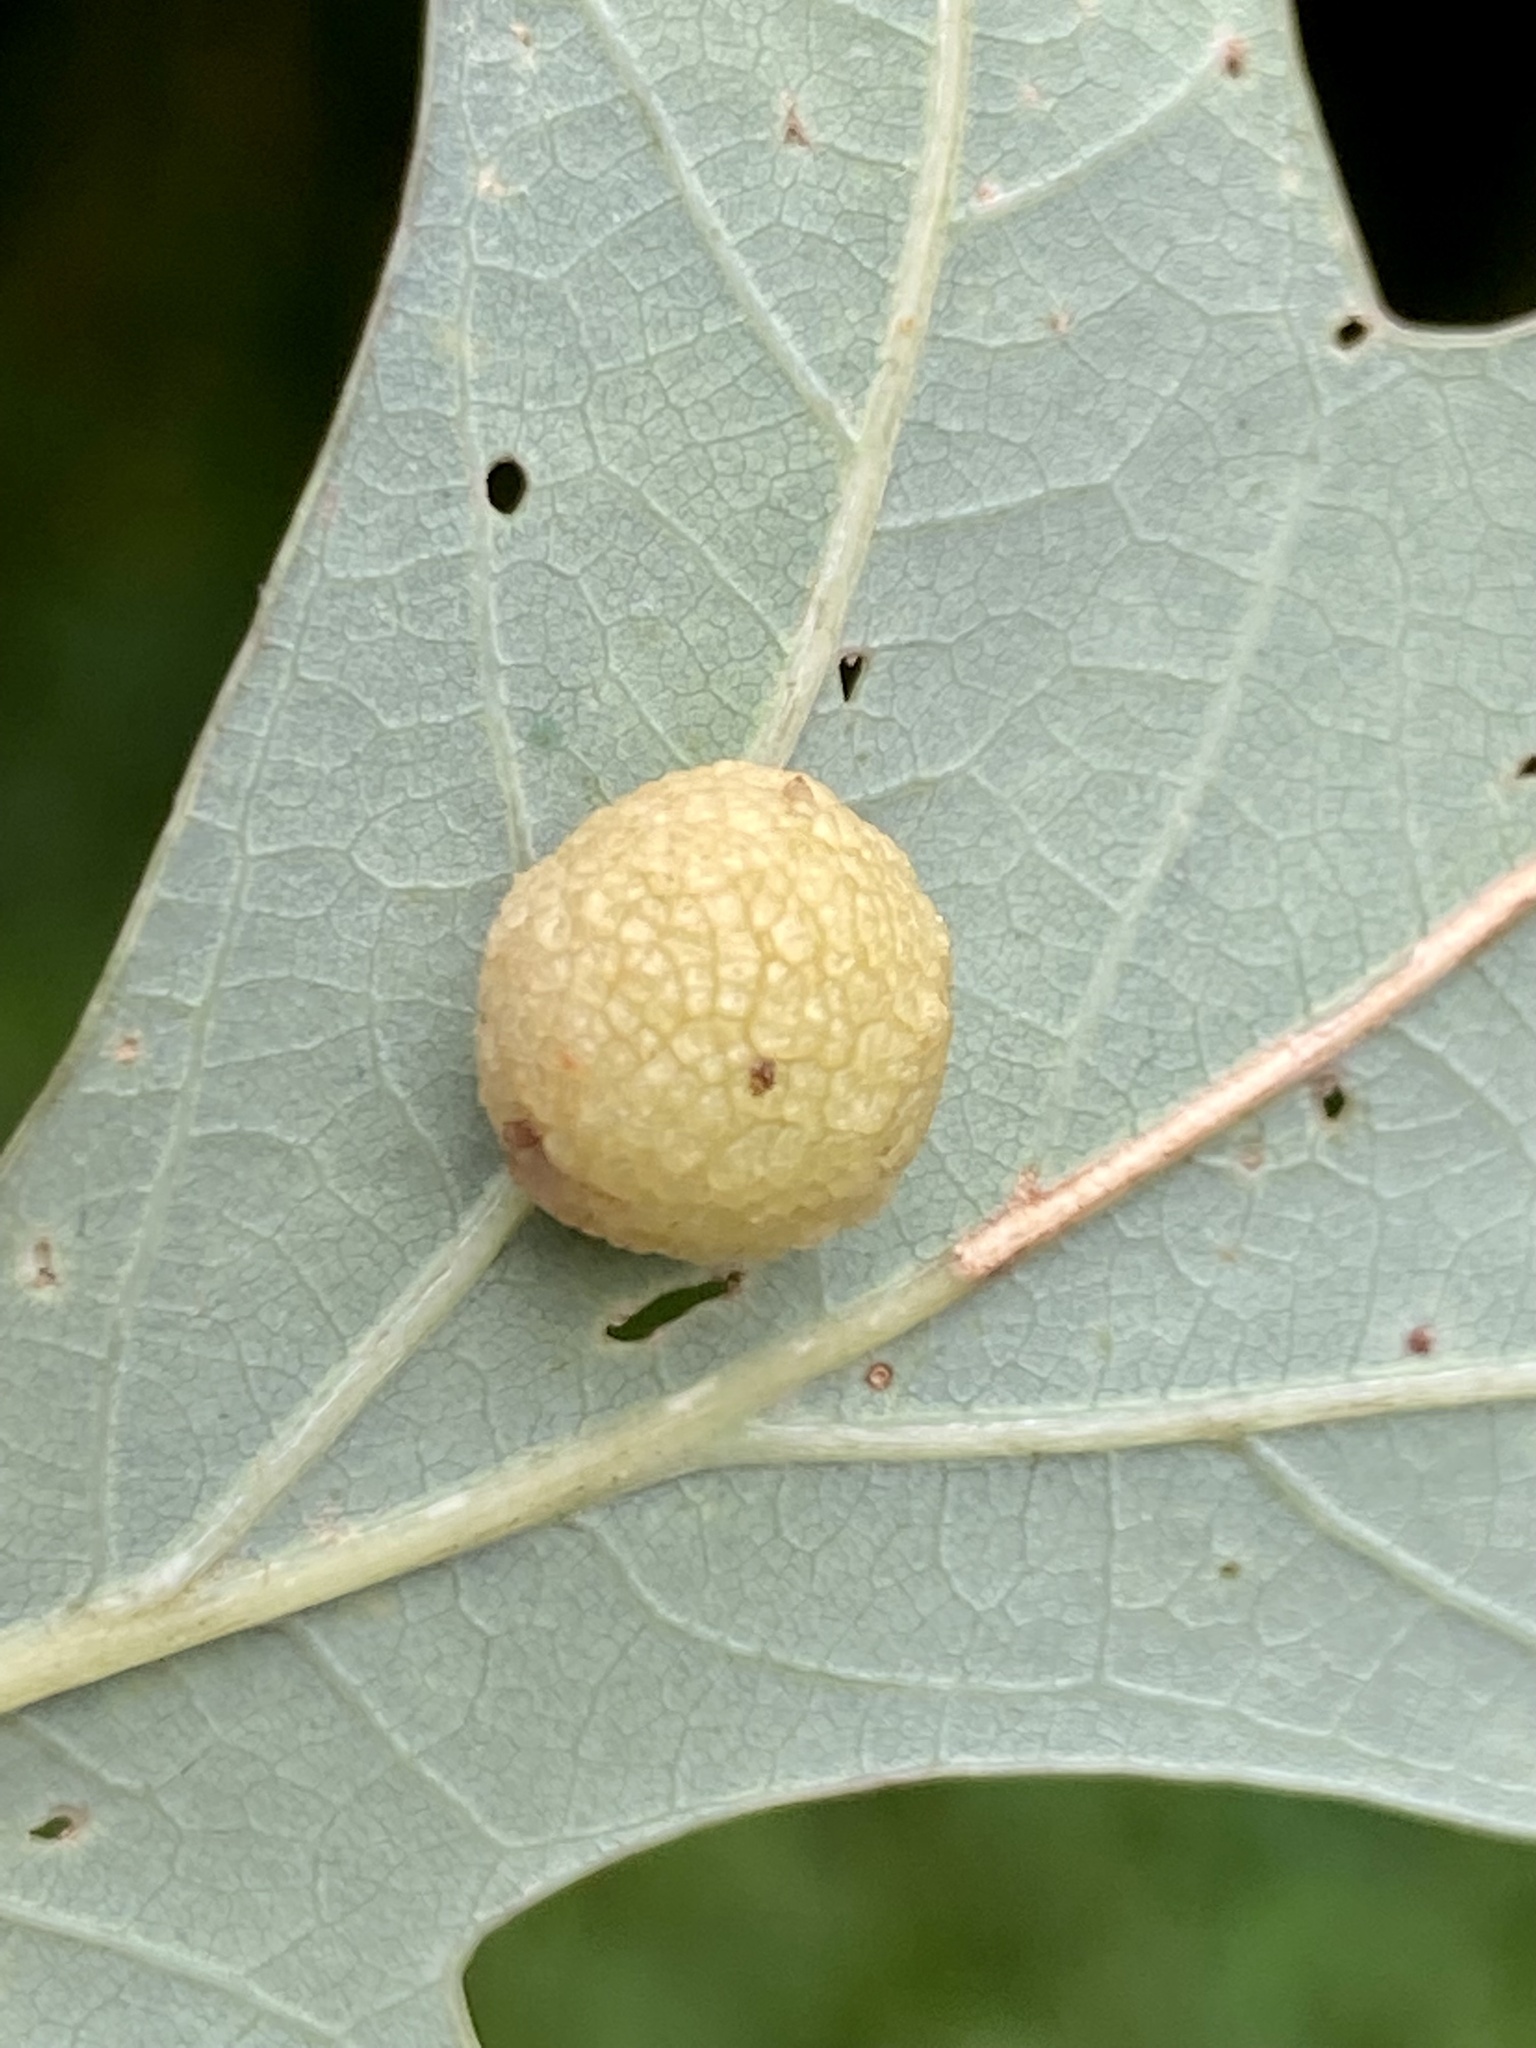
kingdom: Animalia
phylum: Arthropoda
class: Insecta
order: Hymenoptera
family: Cynipidae
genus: Acraspis
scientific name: Acraspis
